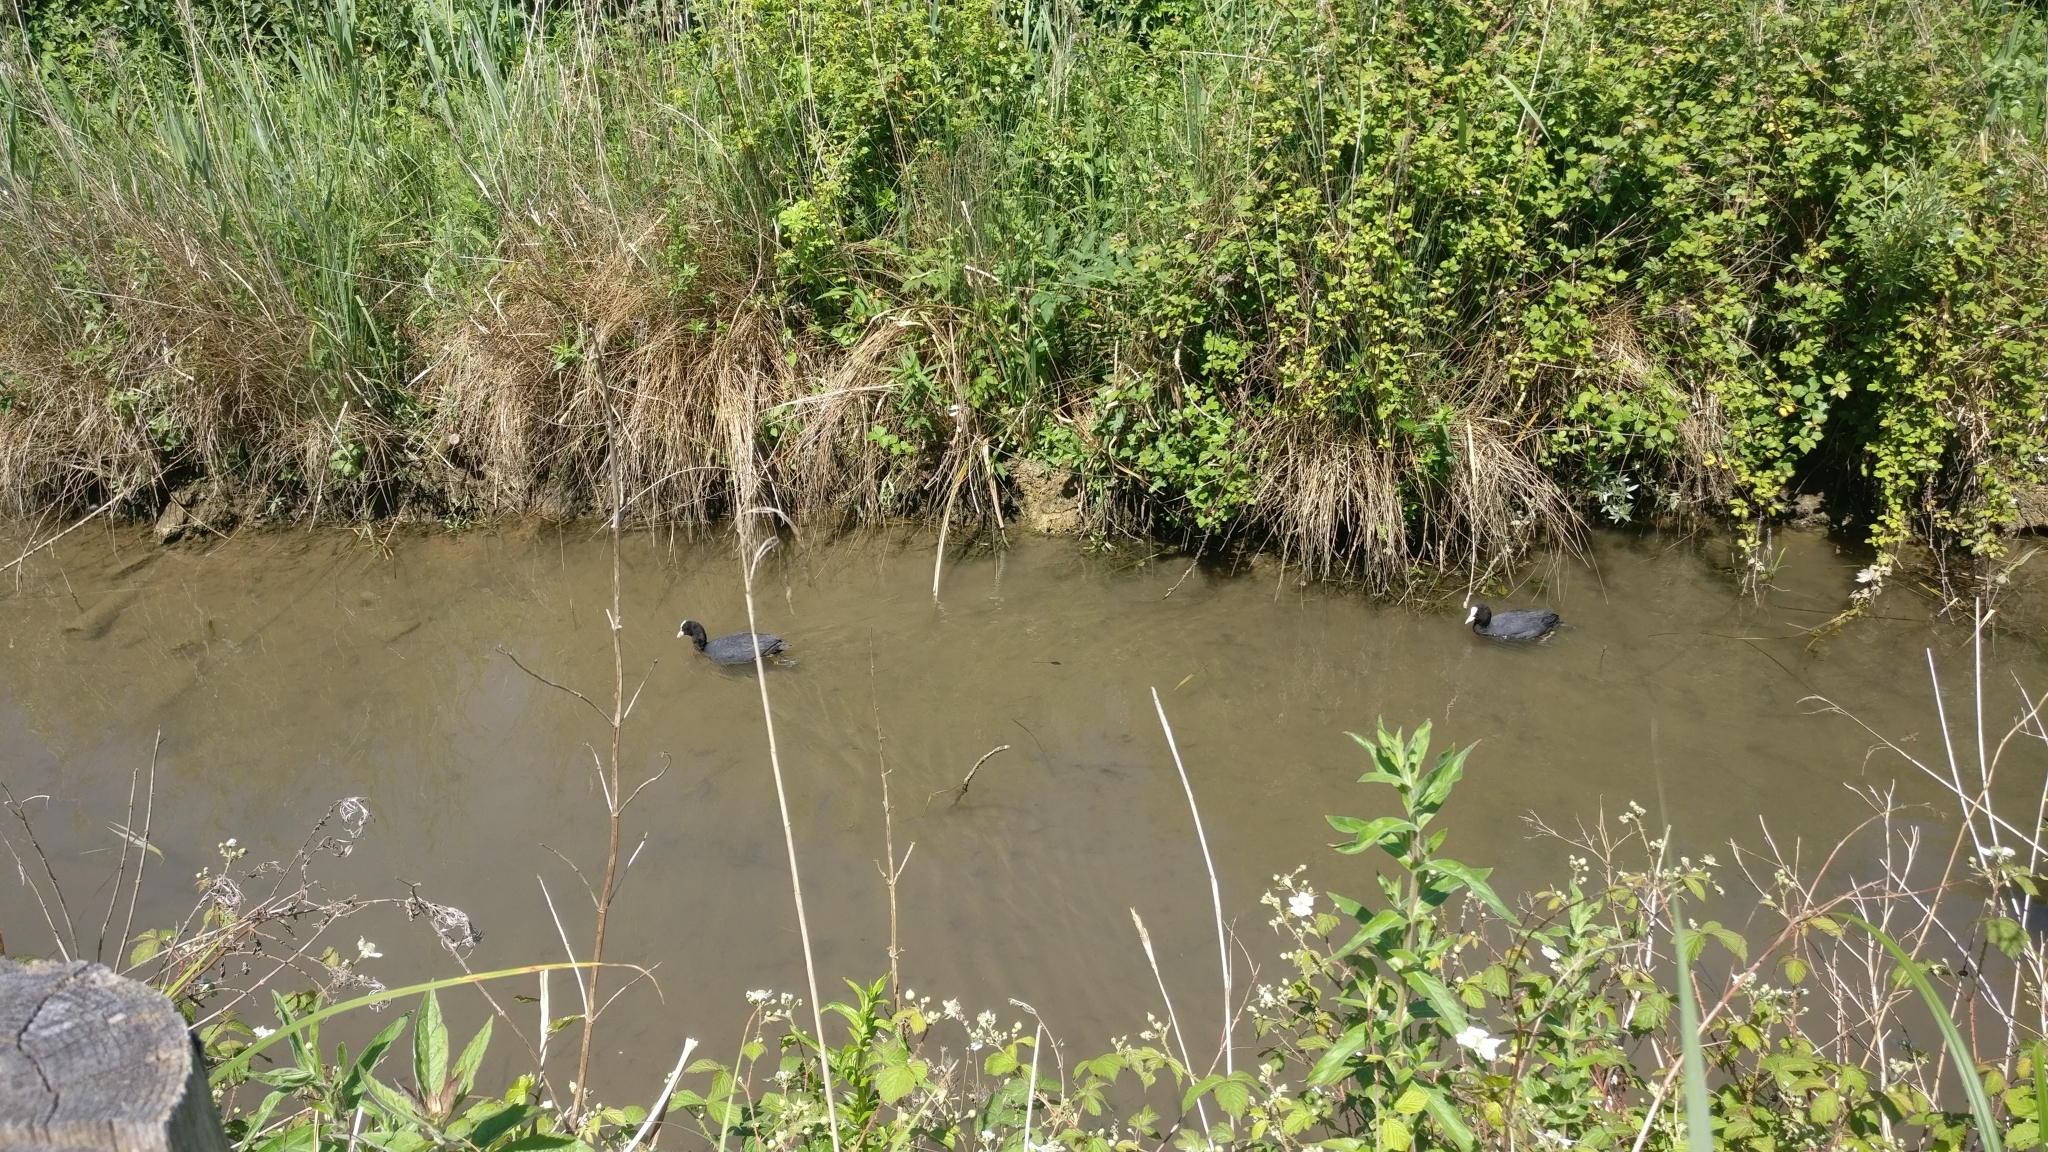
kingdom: Animalia
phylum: Chordata
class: Aves
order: Gruiformes
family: Rallidae
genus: Fulica
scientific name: Fulica atra
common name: Eurasian coot
